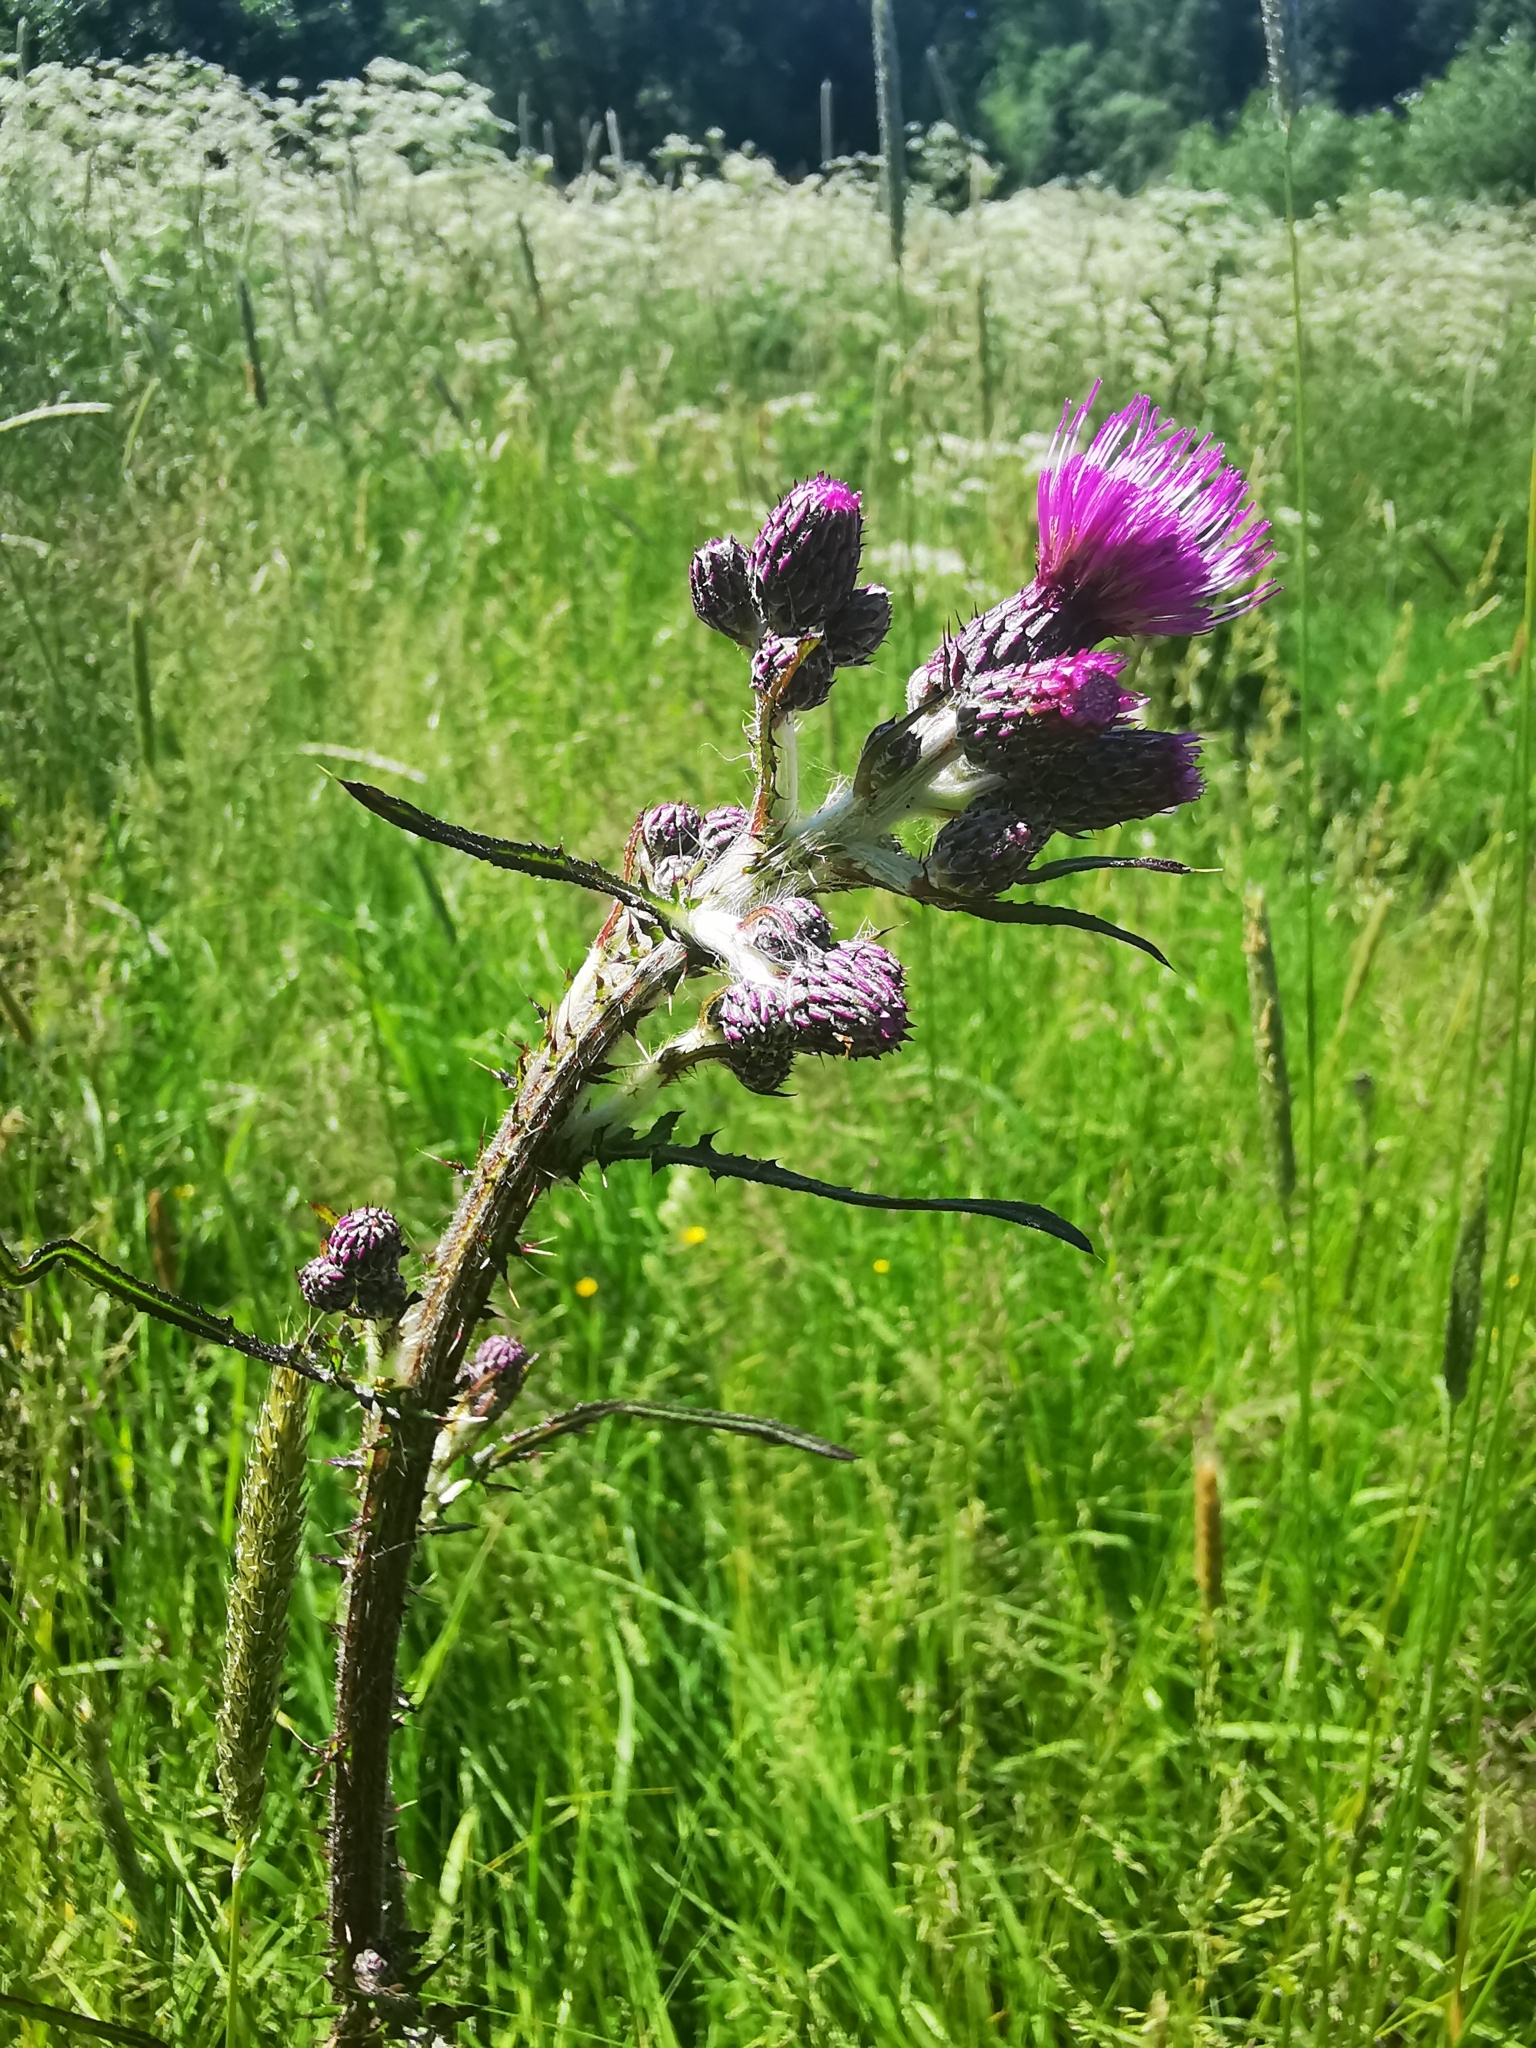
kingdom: Plantae
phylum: Tracheophyta
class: Magnoliopsida
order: Asterales
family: Asteraceae
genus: Cirsium
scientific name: Cirsium palustre
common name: Marsh thistle
